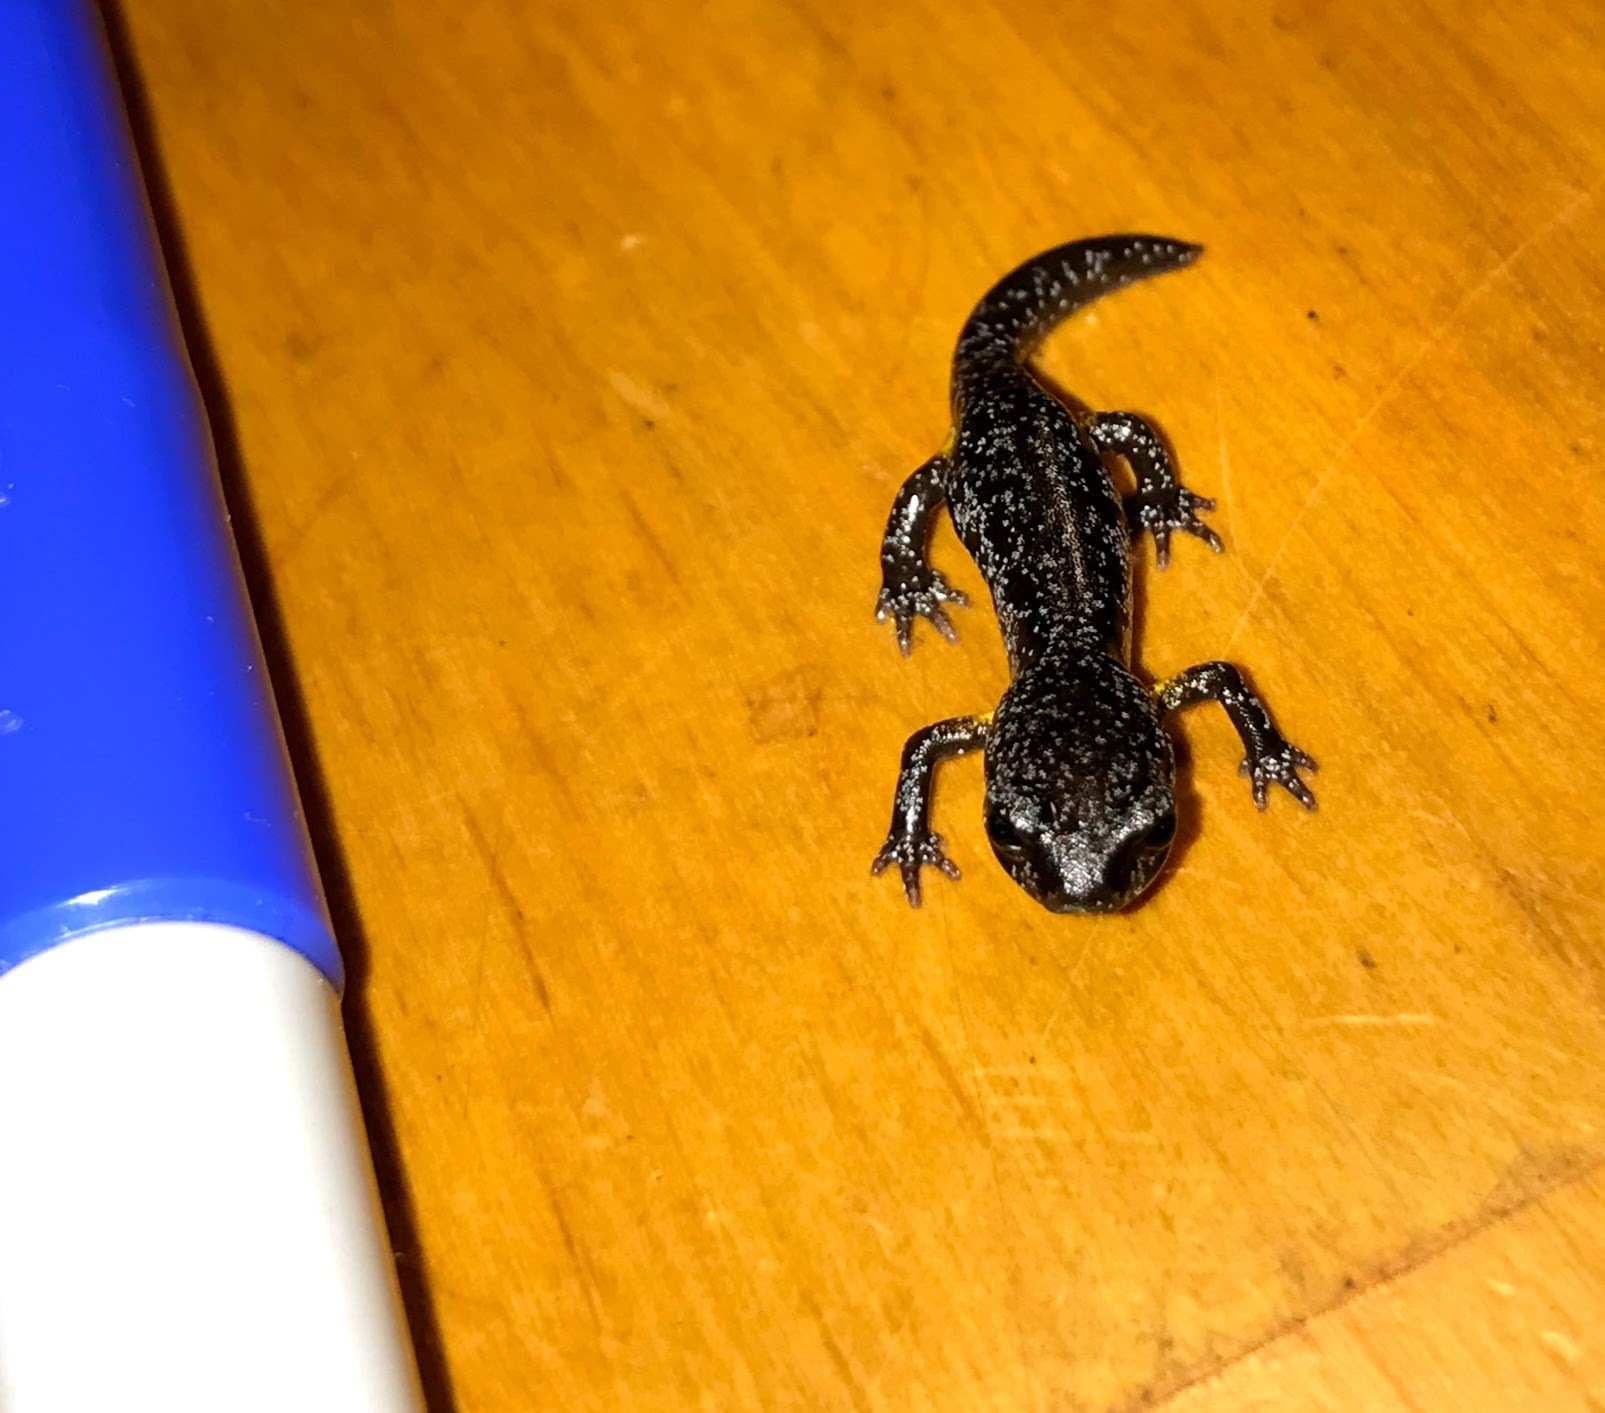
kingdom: Animalia
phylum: Chordata
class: Amphibia
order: Caudata
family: Plethodontidae
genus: Ensatina
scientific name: Ensatina eschscholtzii
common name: Ensatina
